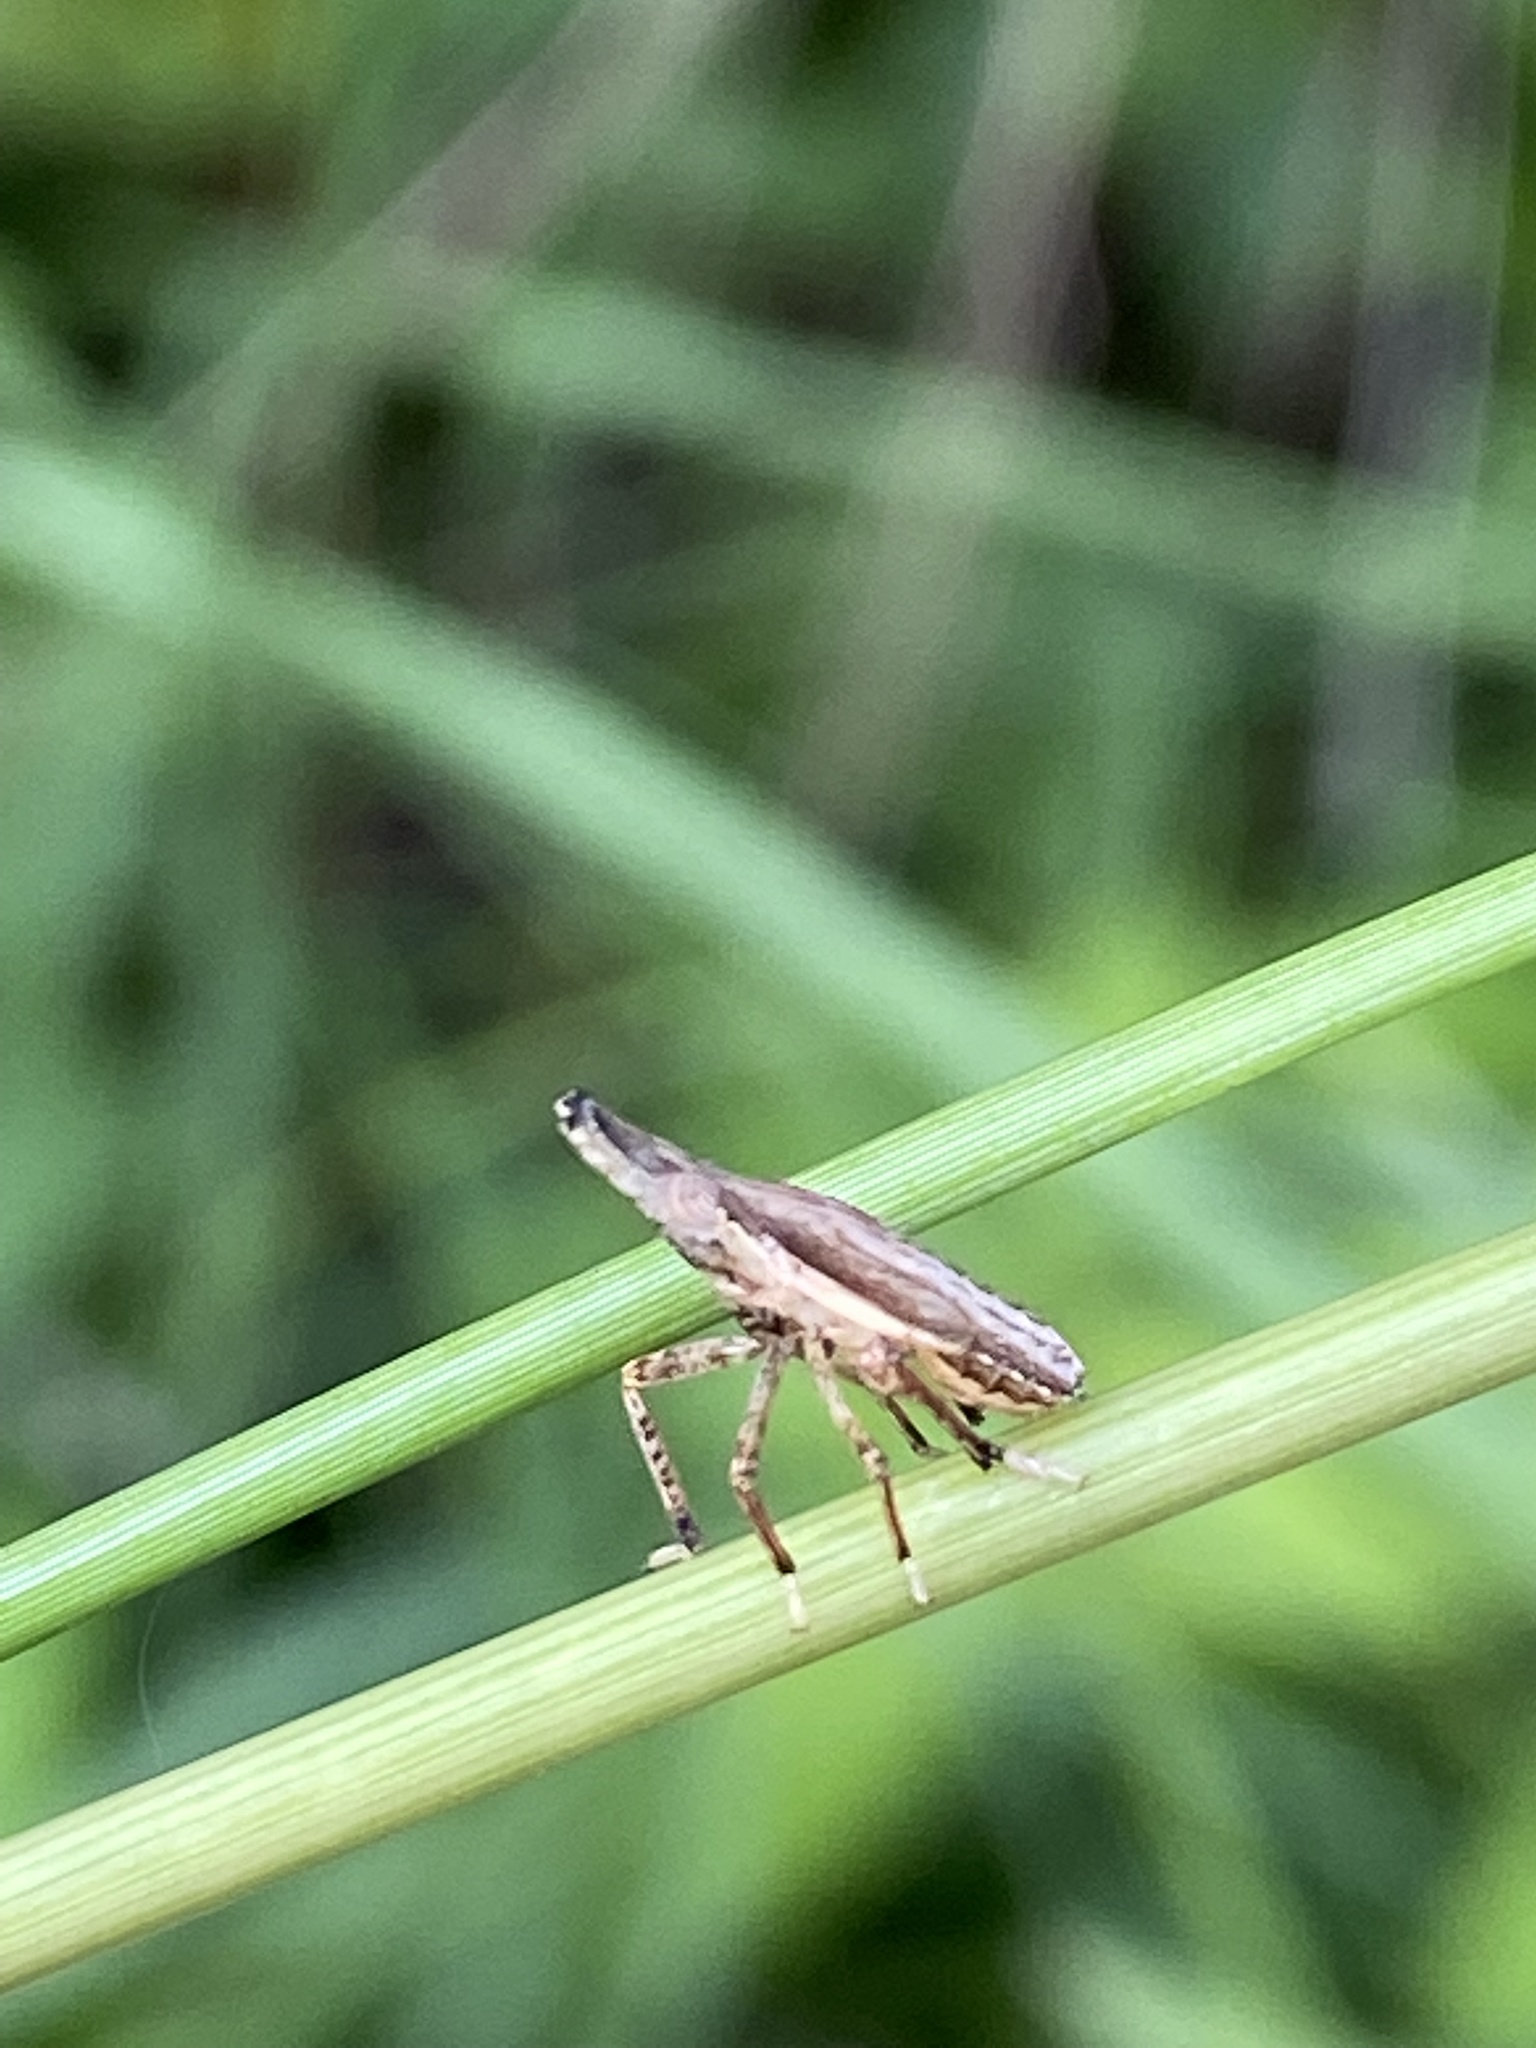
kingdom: Animalia
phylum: Arthropoda
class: Insecta
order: Hemiptera
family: Dictyopharidae
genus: Rhynchomitra
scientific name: Rhynchomitra microrhina
